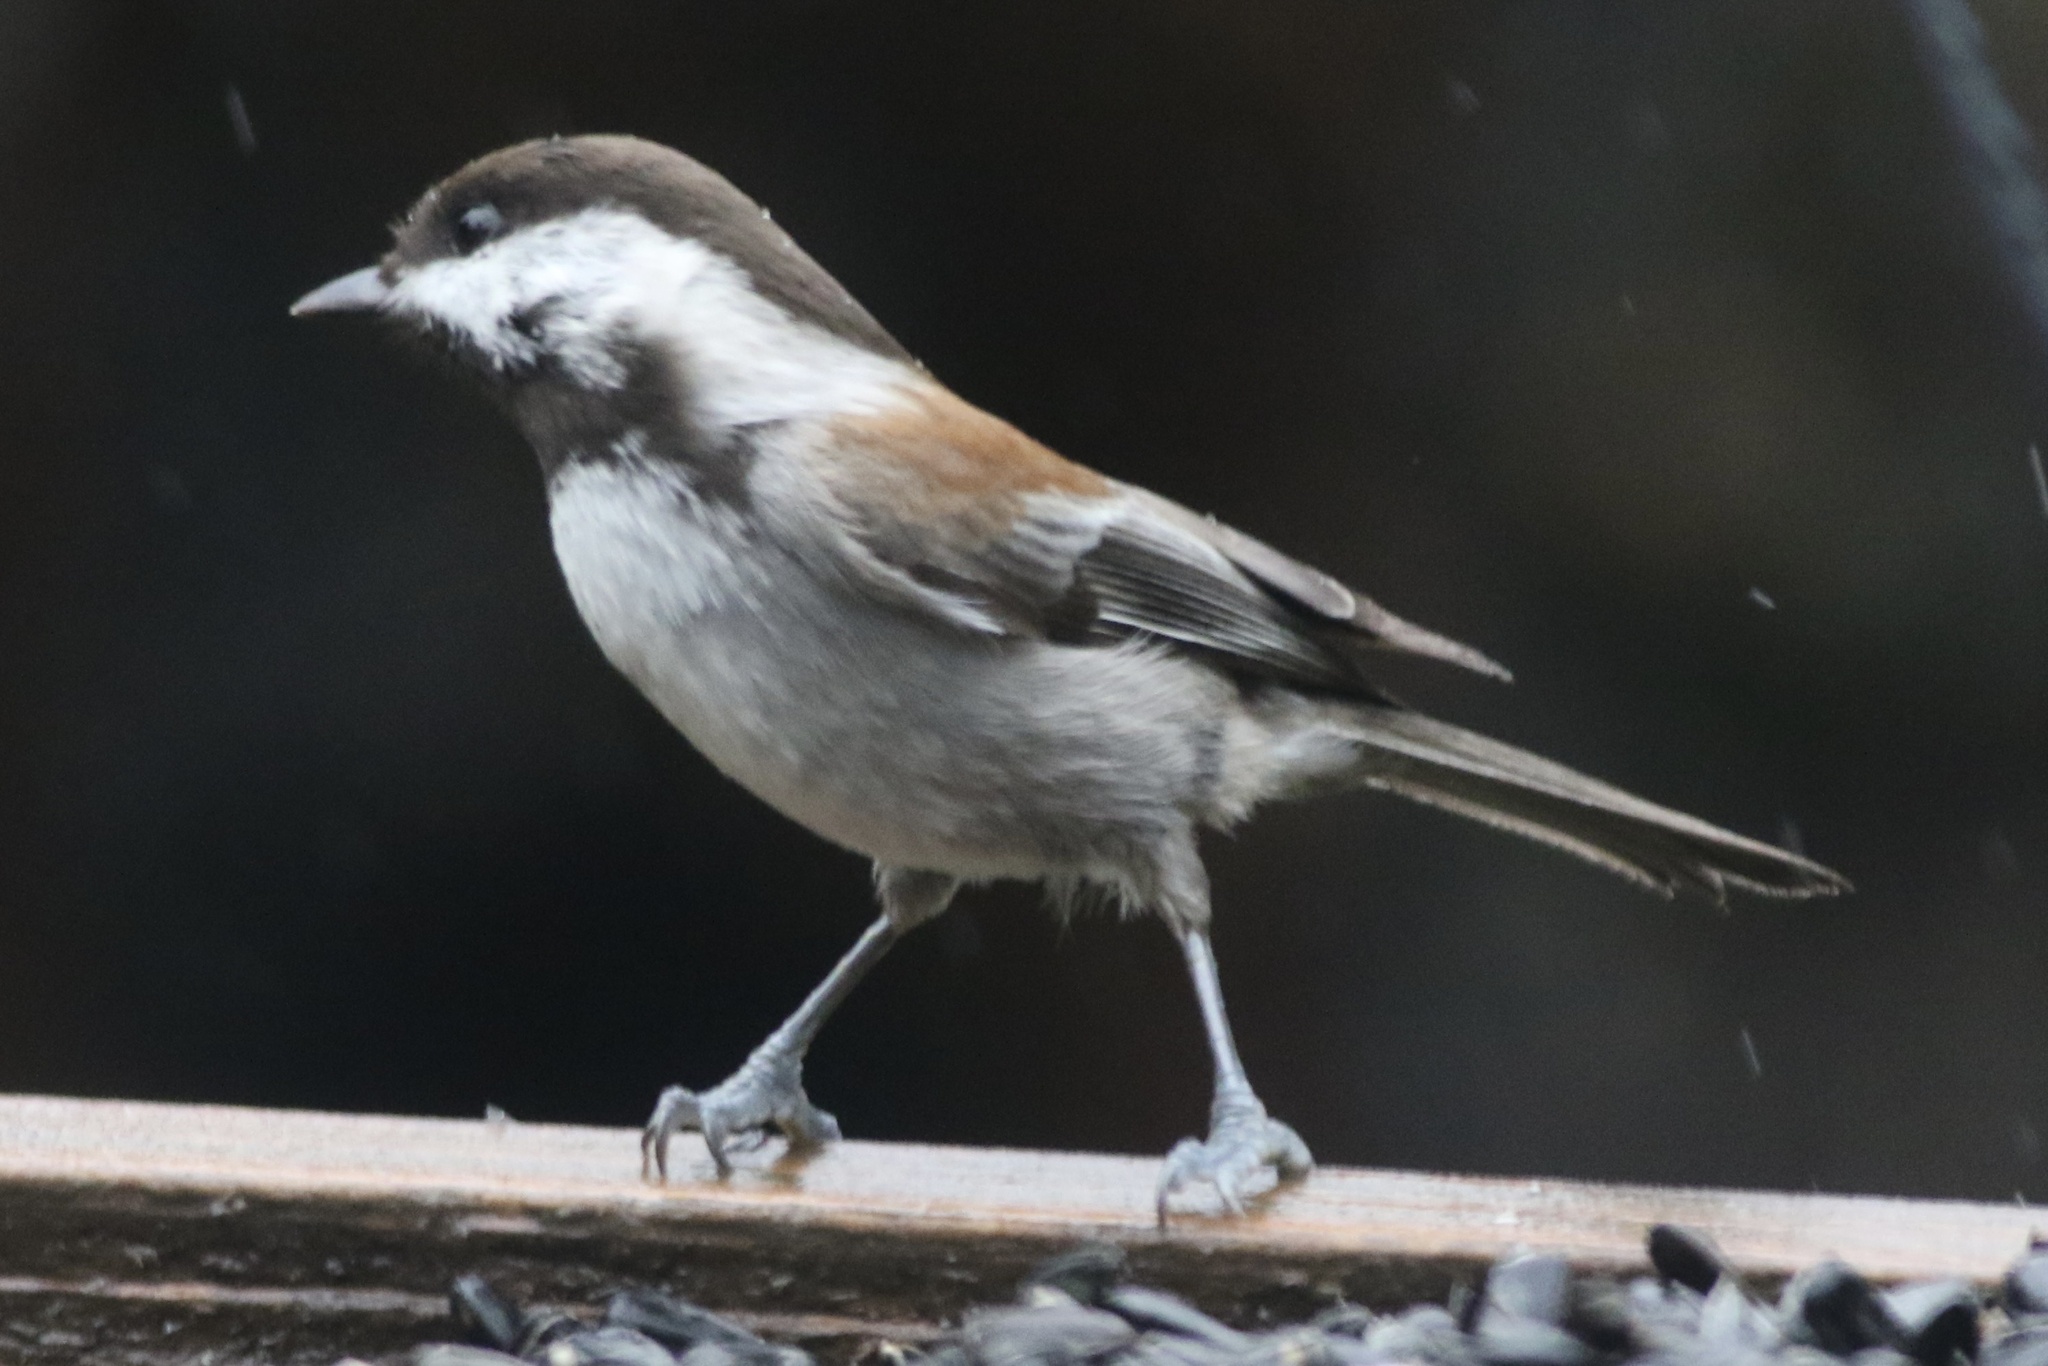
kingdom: Animalia
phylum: Chordata
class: Aves
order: Passeriformes
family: Paridae
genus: Poecile
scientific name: Poecile rufescens
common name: Chestnut-backed chickadee
